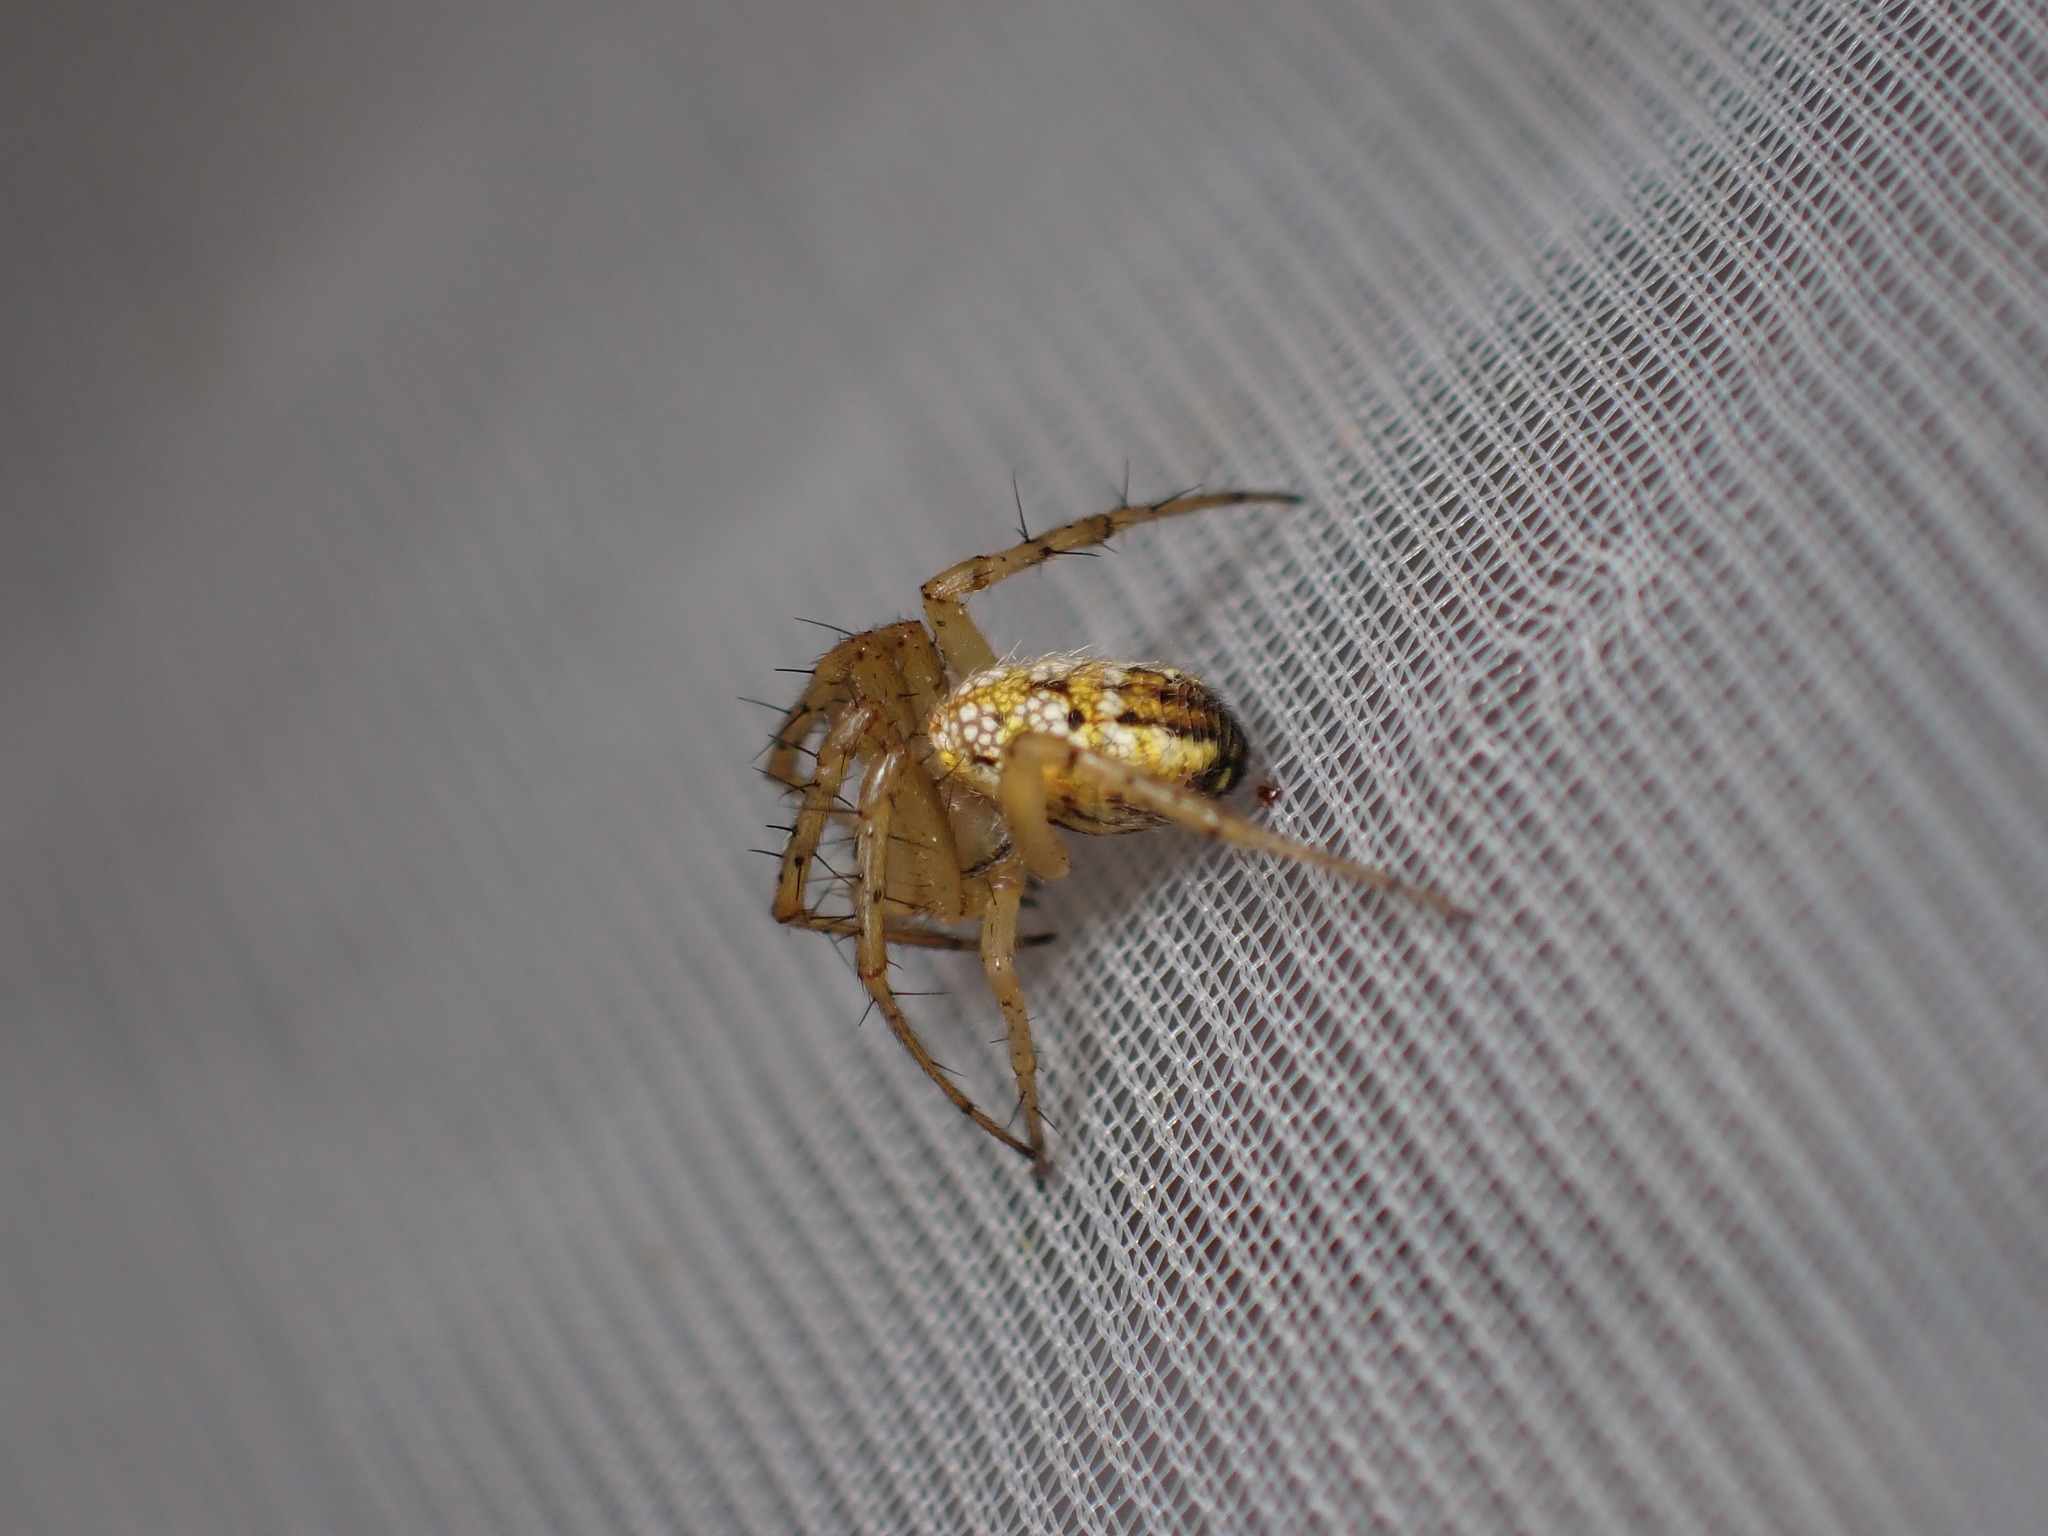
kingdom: Animalia
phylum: Arthropoda
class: Arachnida
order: Araneae
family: Araneidae
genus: Mangora
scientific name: Mangora acalypha
